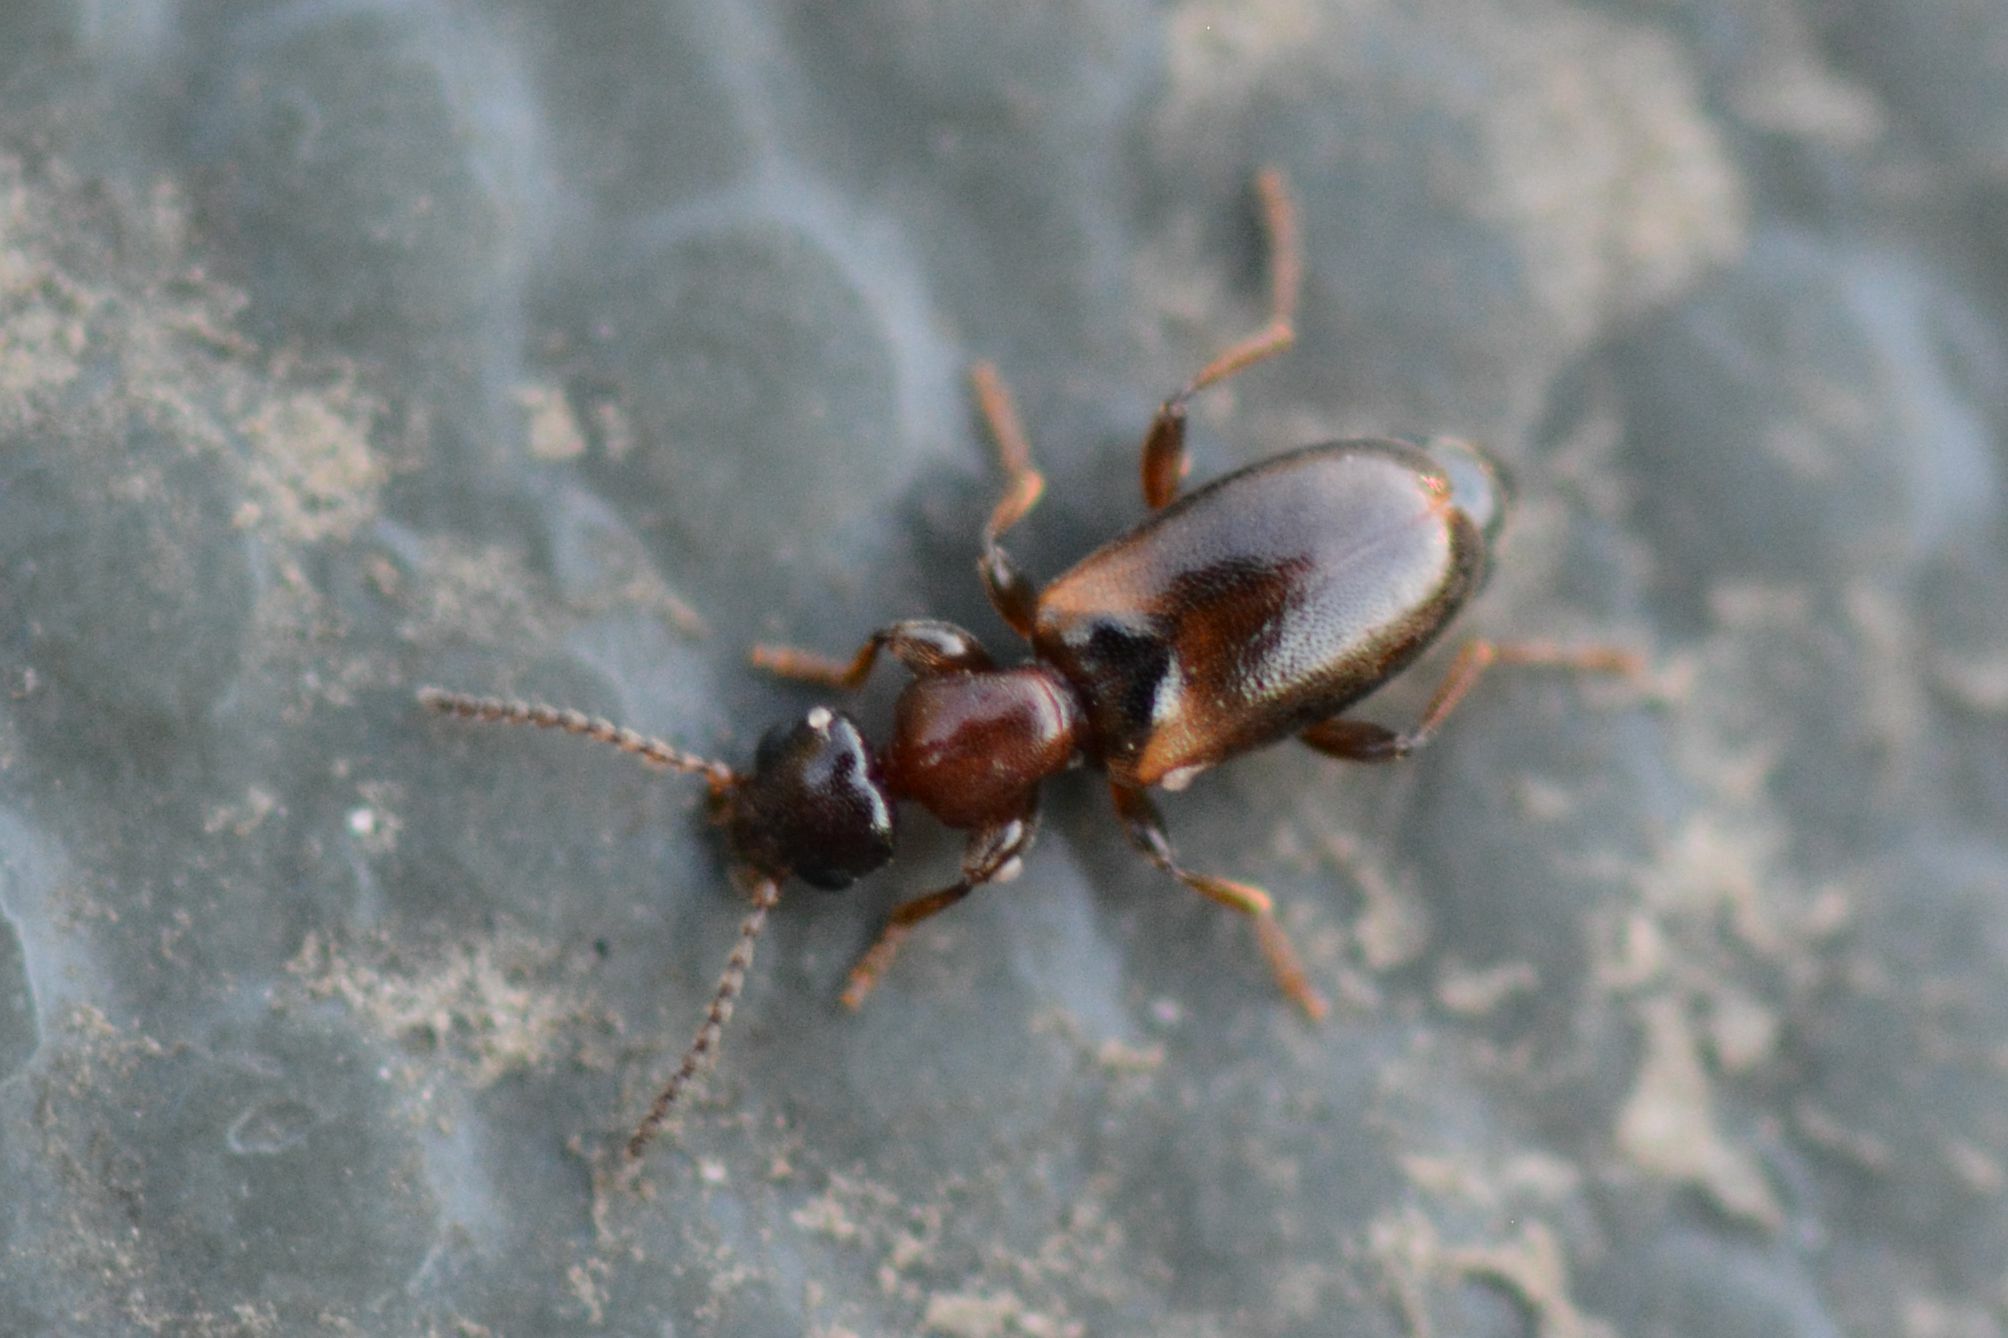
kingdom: Animalia
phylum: Arthropoda
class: Insecta
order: Coleoptera
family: Anthicidae
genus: Omonadus
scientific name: Omonadus floralis
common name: Narrownecked grain beetle
